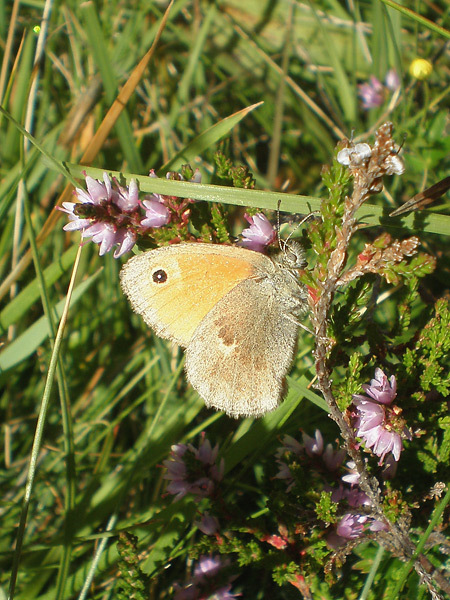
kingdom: Animalia
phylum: Arthropoda
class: Insecta
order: Lepidoptera
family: Nymphalidae
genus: Coenonympha
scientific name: Coenonympha pamphilus
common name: Small heath
